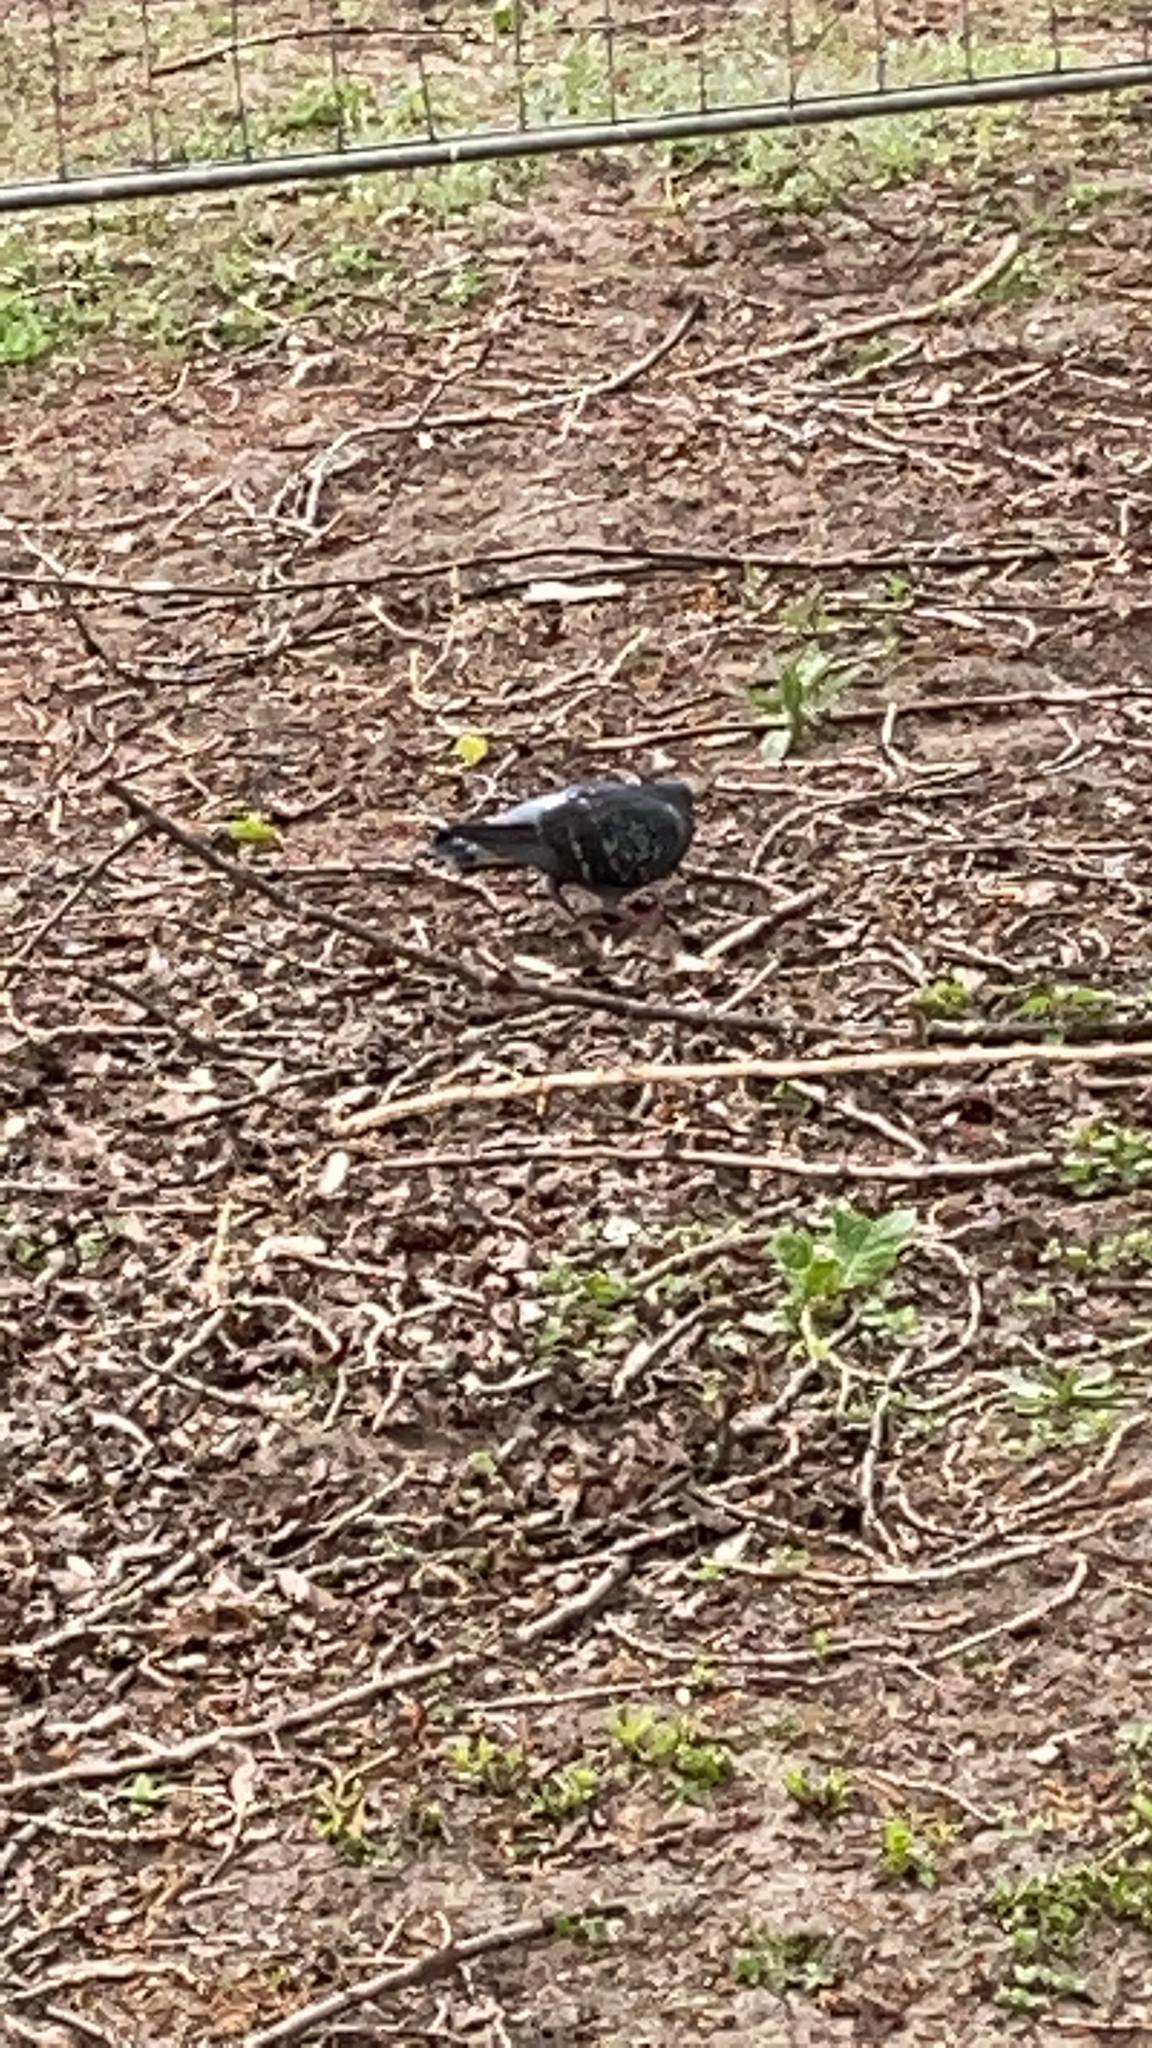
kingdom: Animalia
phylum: Chordata
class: Aves
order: Columbiformes
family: Columbidae
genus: Columba
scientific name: Columba livia
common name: Rock pigeon
